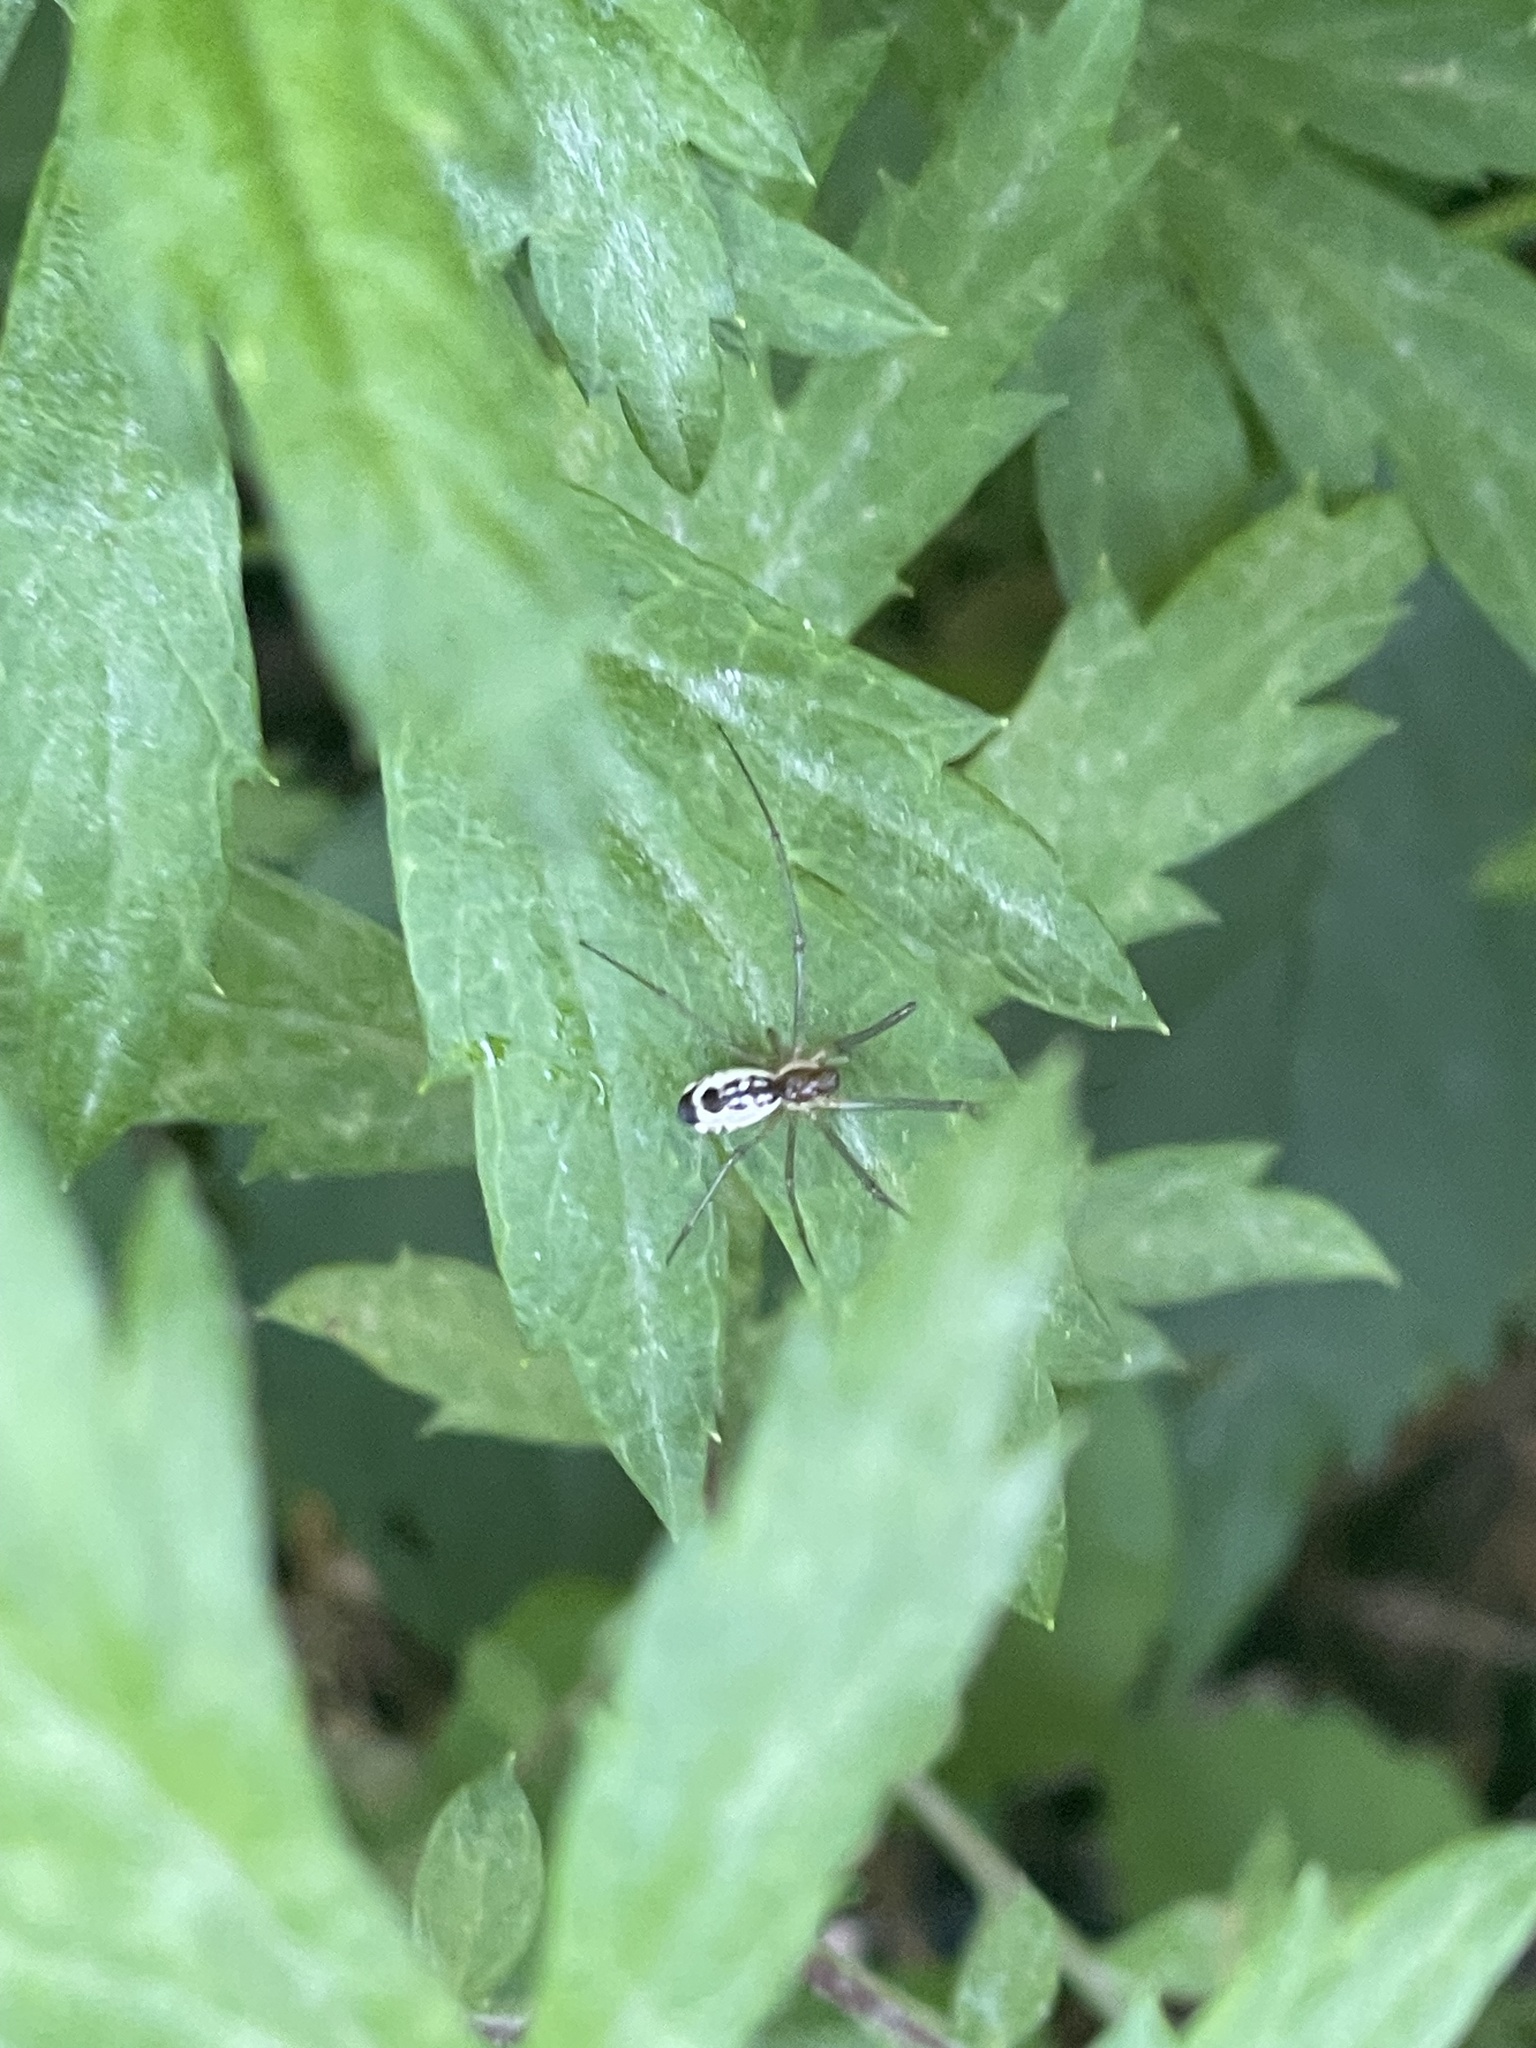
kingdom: Animalia
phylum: Arthropoda
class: Arachnida
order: Araneae
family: Linyphiidae
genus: Neriene
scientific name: Neriene radiata
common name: Filmy dome spider
